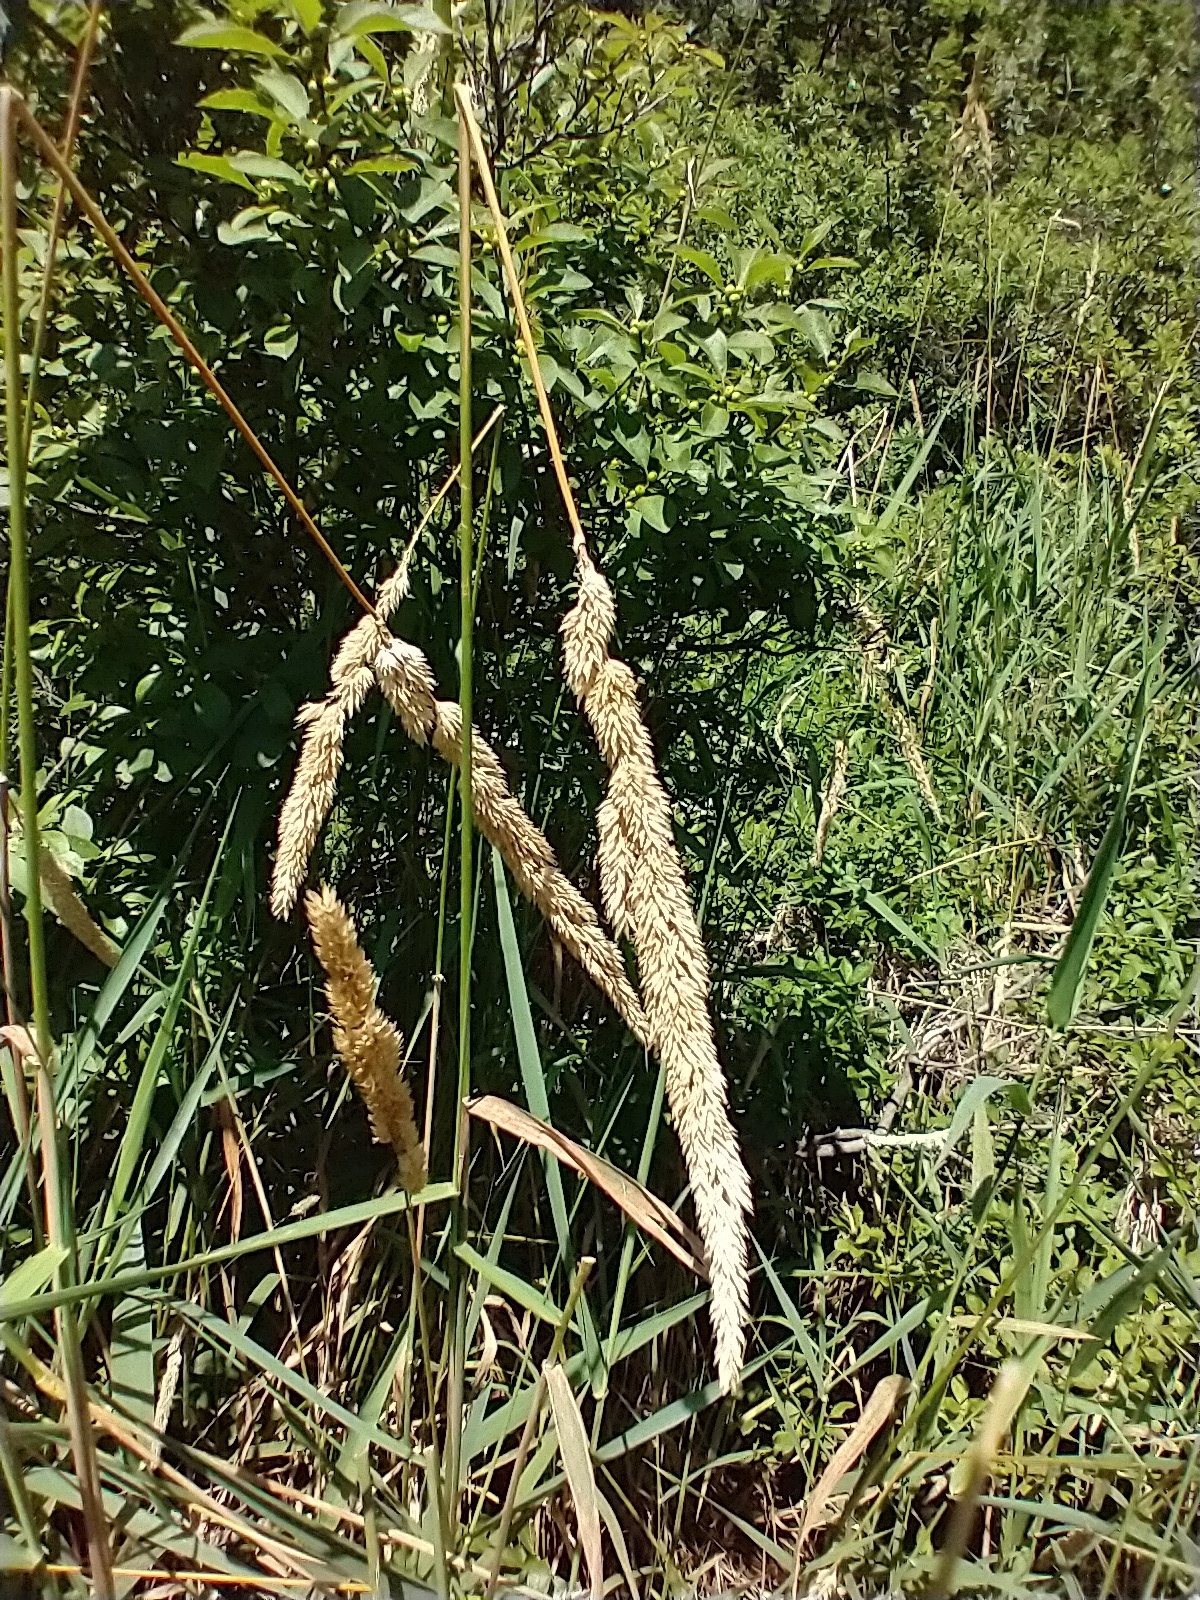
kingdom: Plantae
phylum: Tracheophyta
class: Liliopsida
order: Poales
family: Poaceae
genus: Phalaris
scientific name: Phalaris arundinacea
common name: Reed canary-grass
